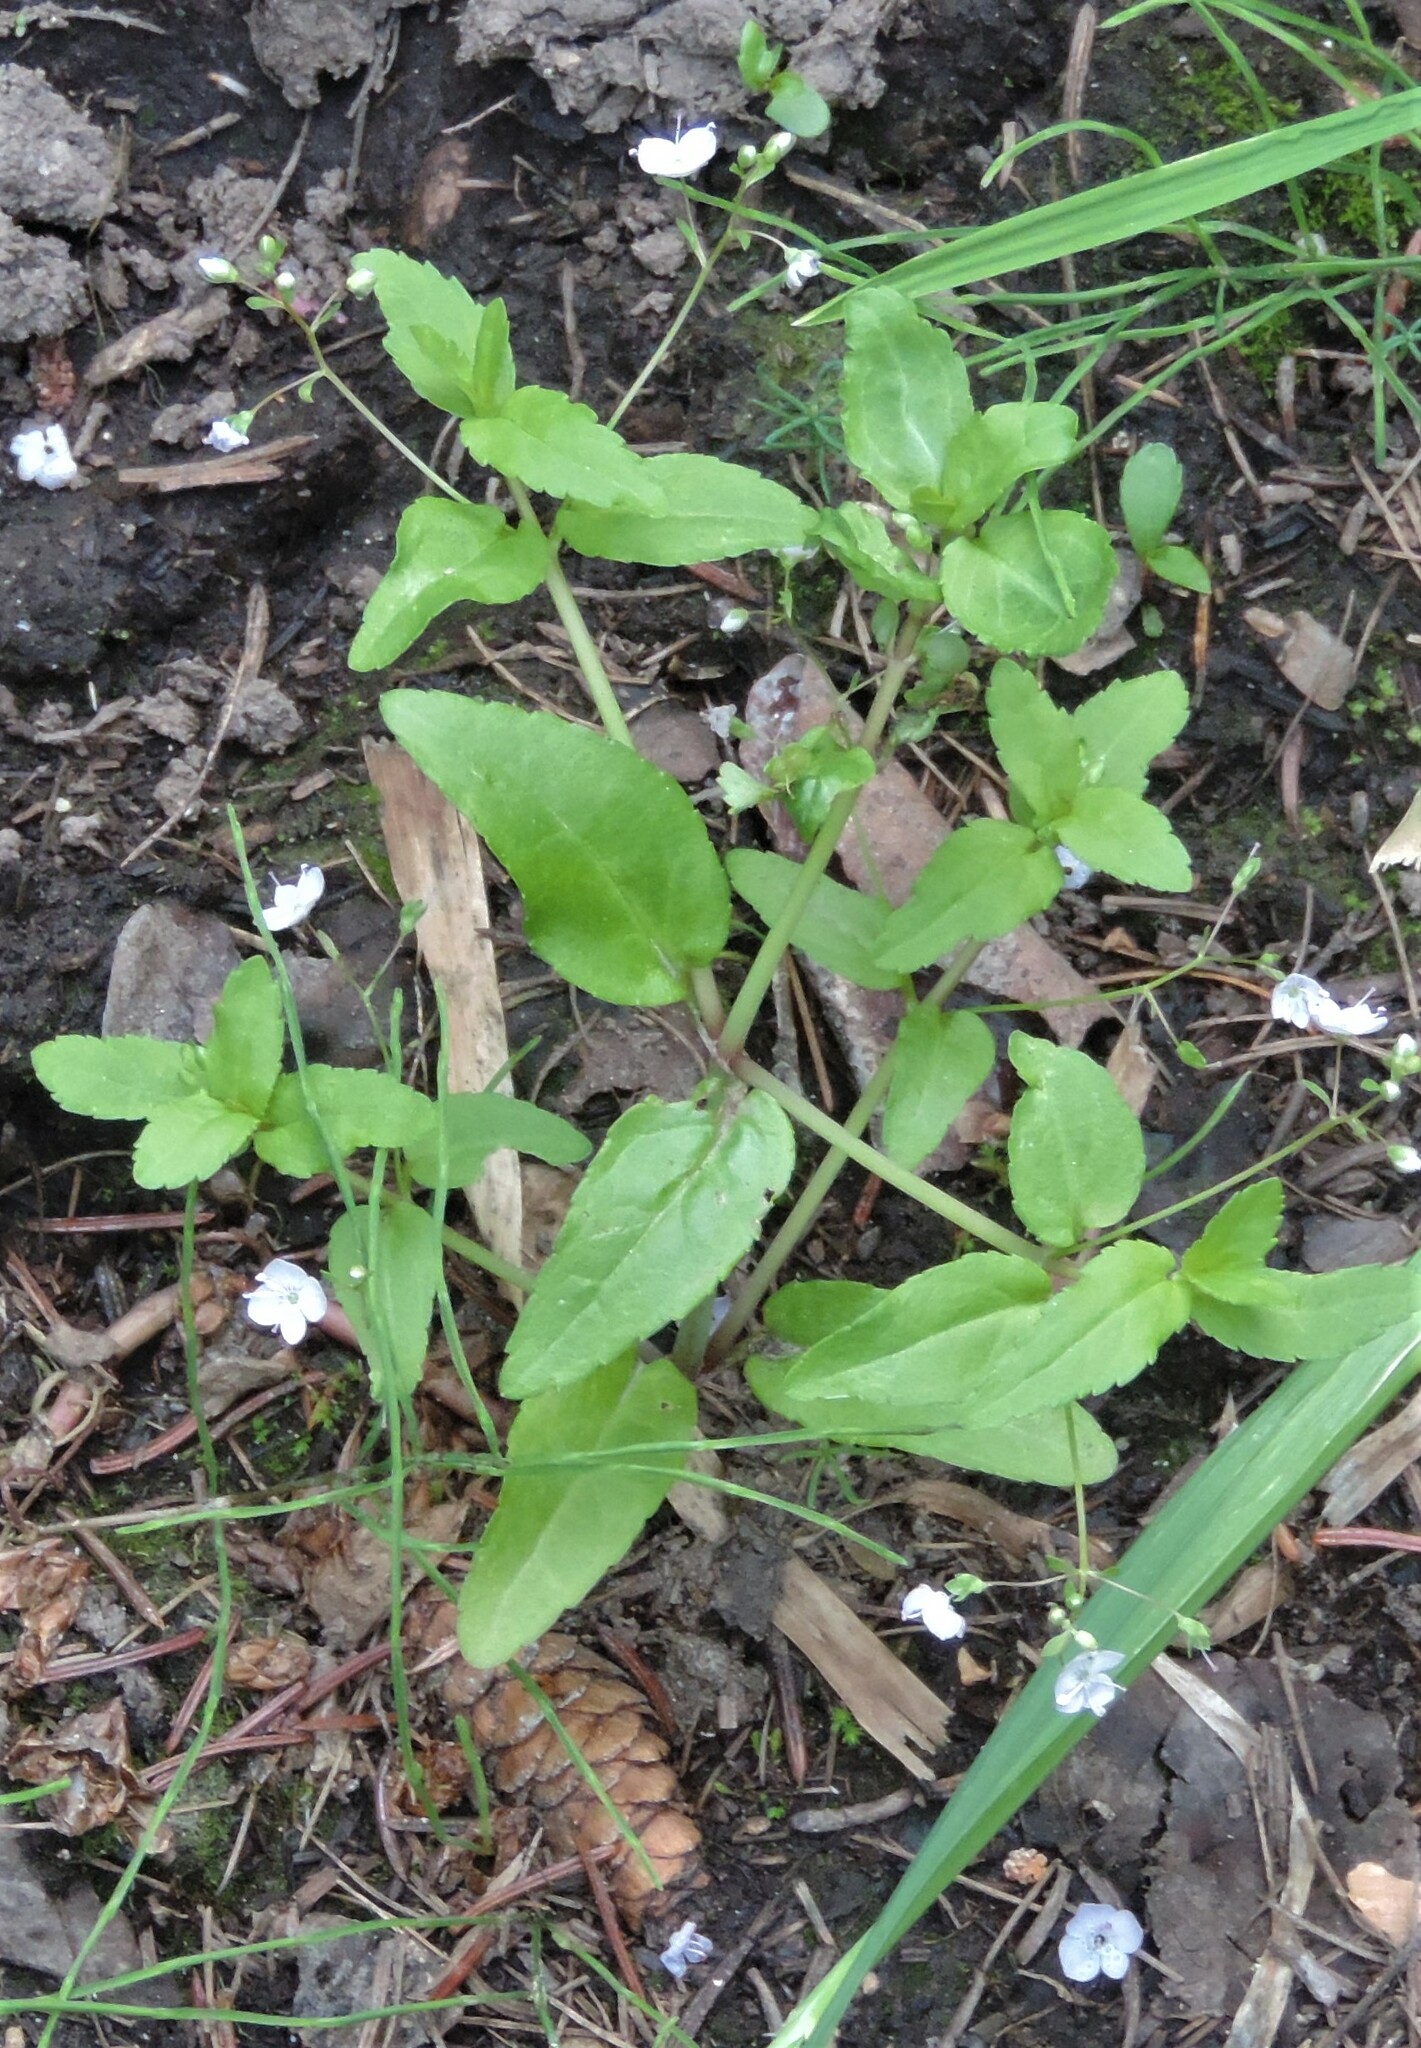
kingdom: Plantae
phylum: Tracheophyta
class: Magnoliopsida
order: Lamiales
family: Plantaginaceae
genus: Veronica
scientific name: Veronica americana
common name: American brooklime
